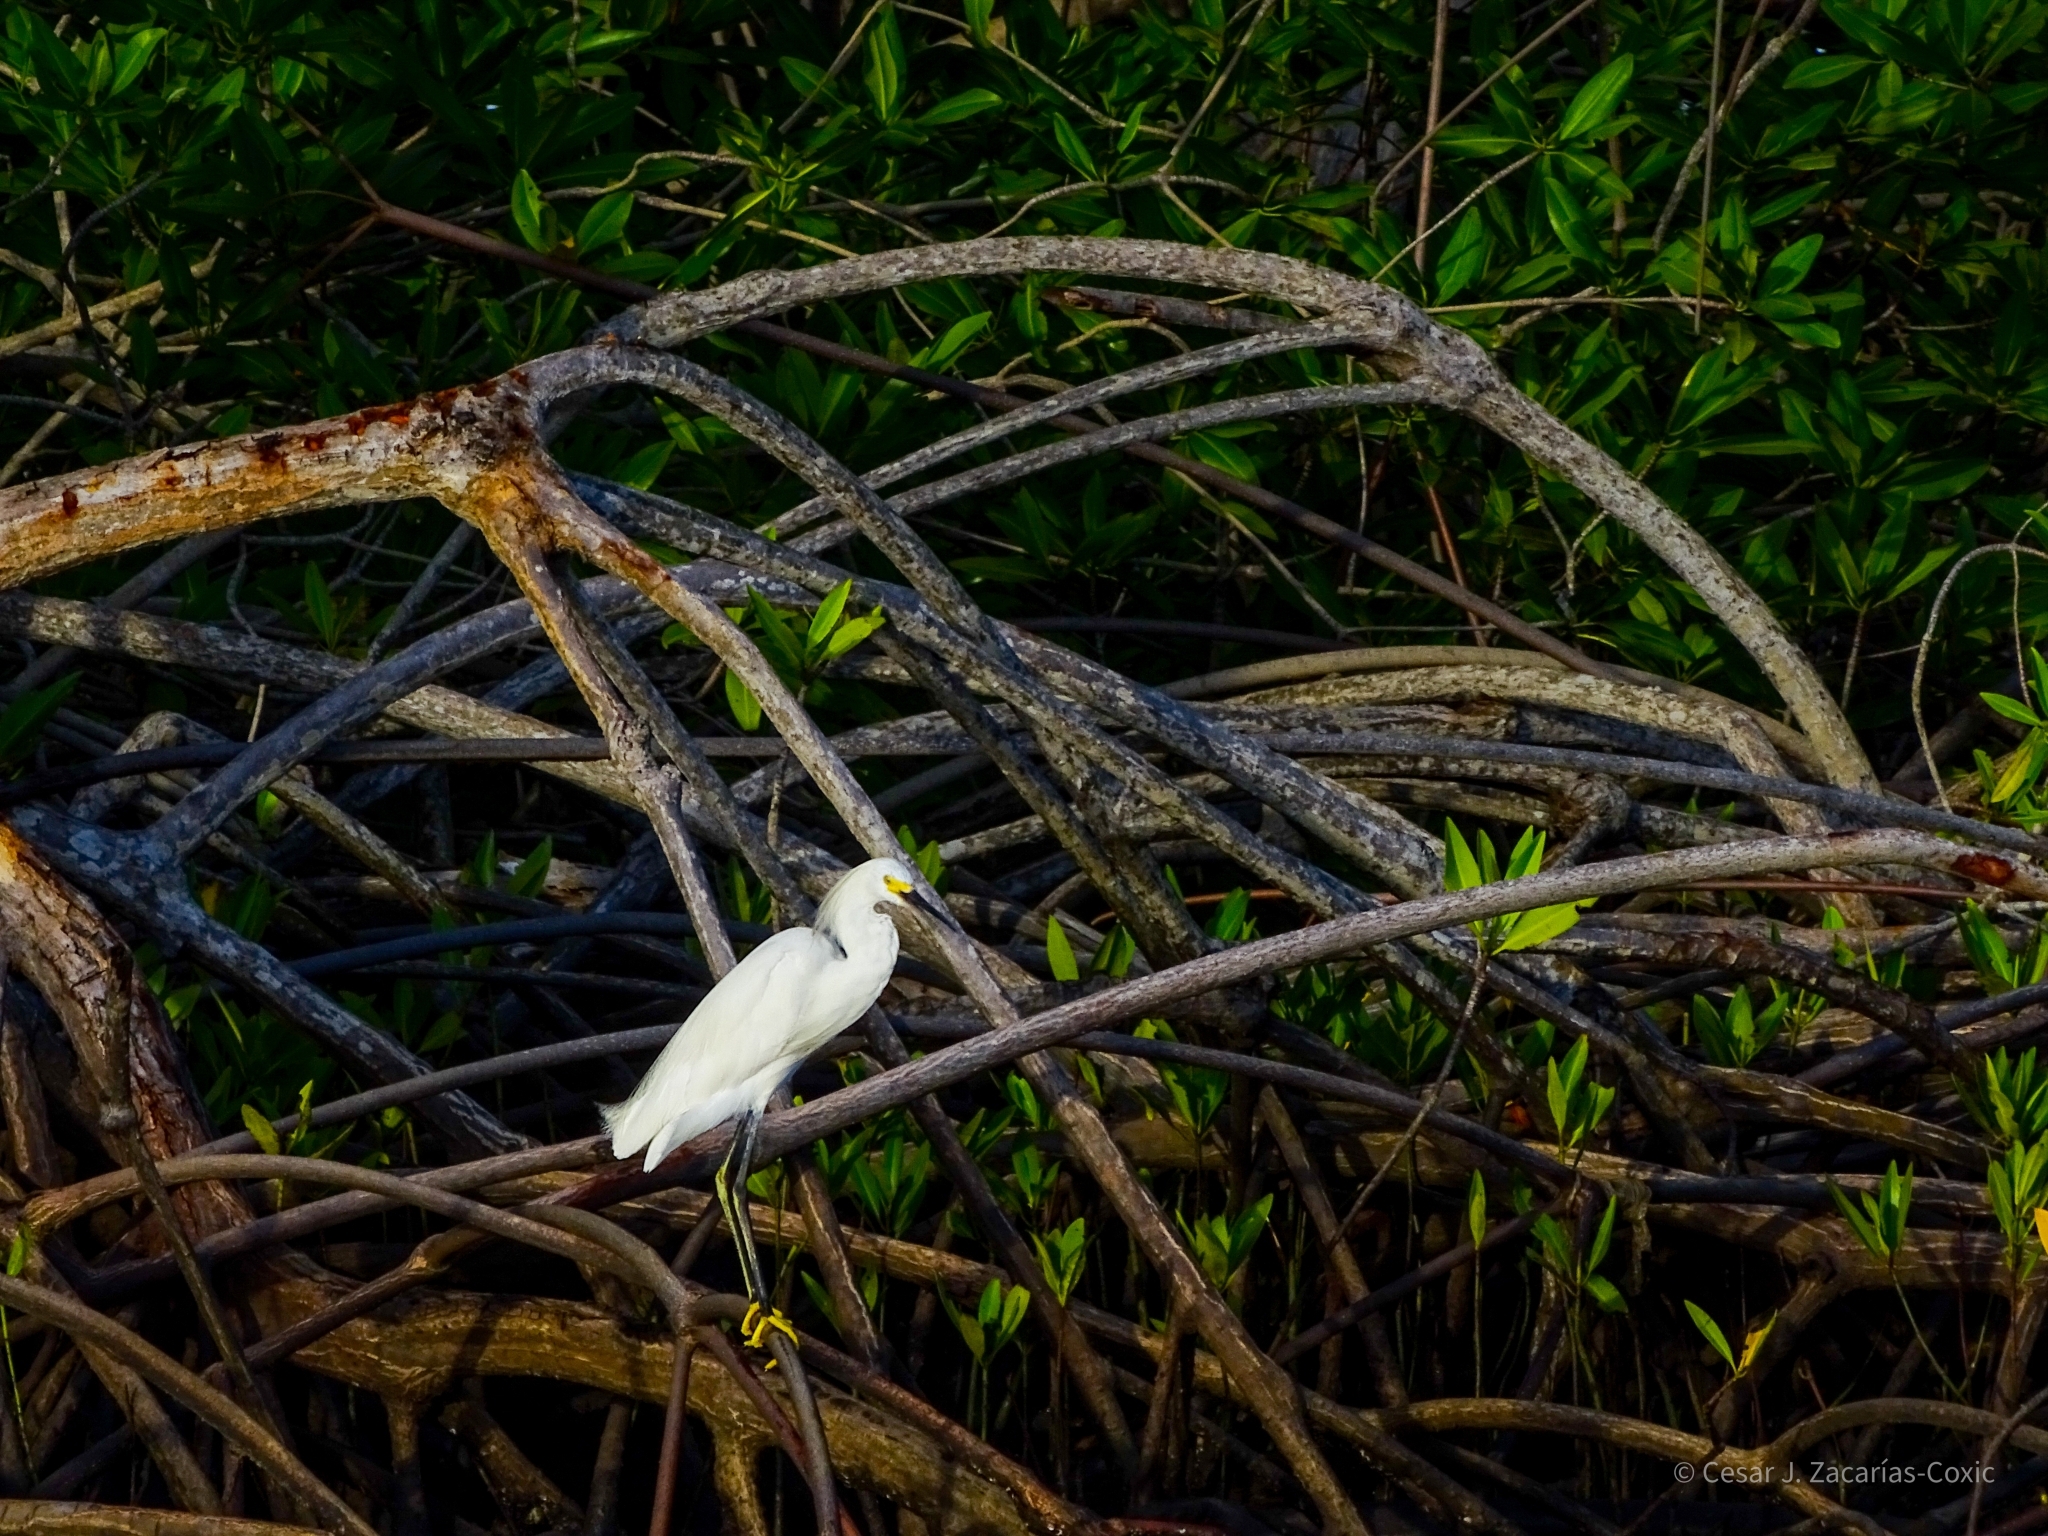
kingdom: Animalia
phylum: Chordata
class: Aves
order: Pelecaniformes
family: Ardeidae
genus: Egretta
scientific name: Egretta thula
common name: Snowy egret
